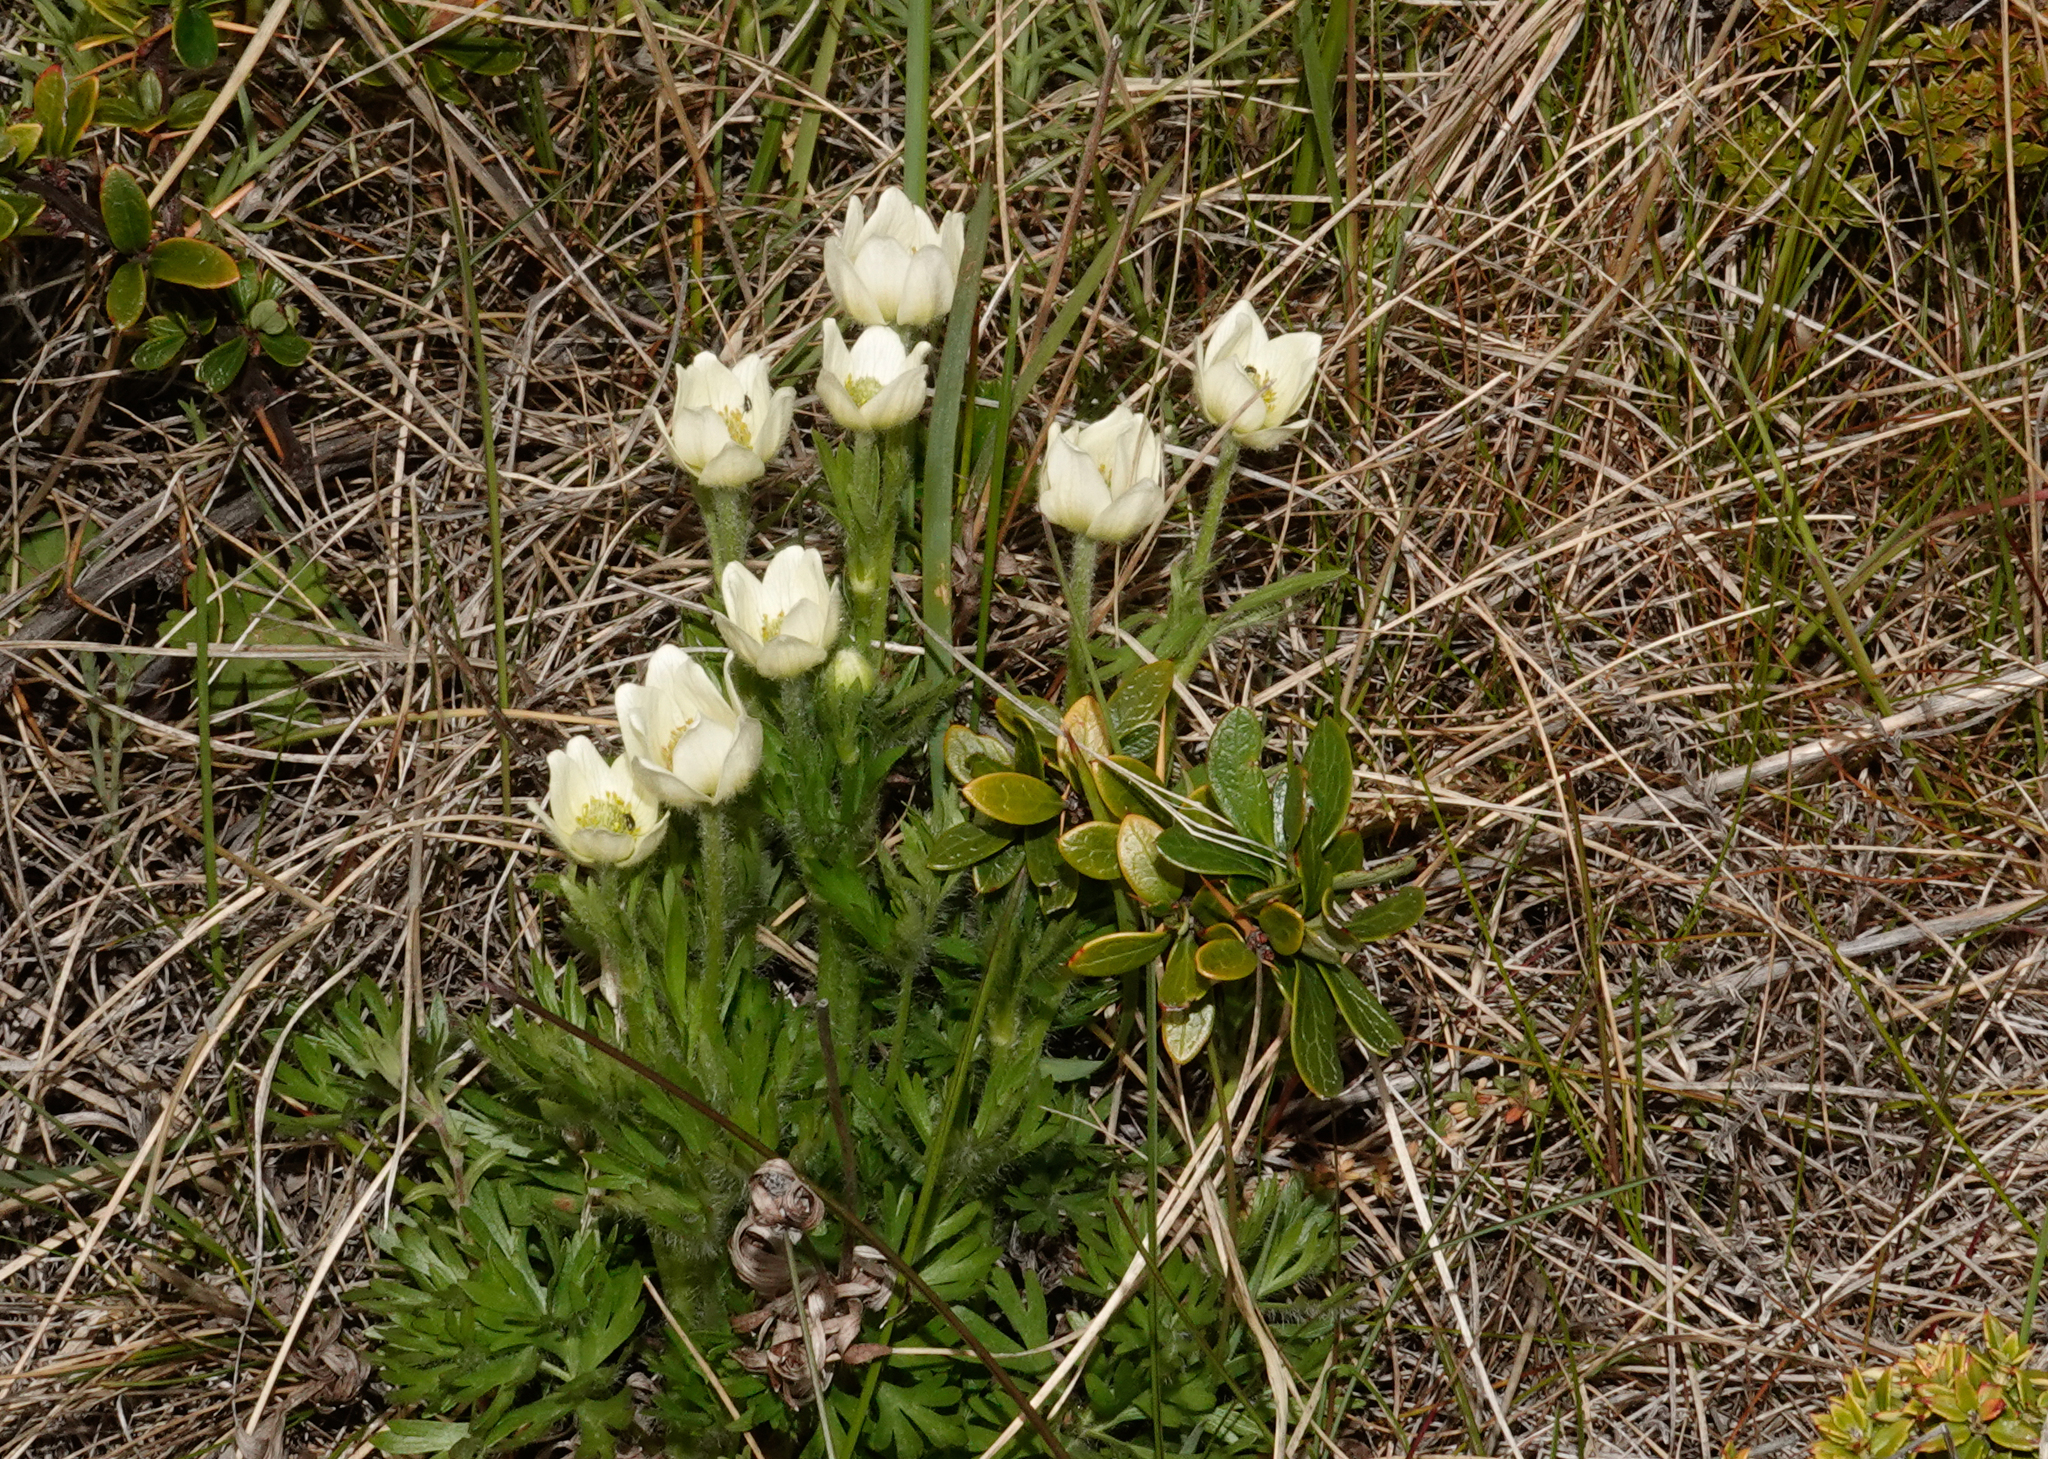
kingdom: Plantae
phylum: Tracheophyta
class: Magnoliopsida
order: Ranunculales
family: Ranunculaceae
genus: Anemone
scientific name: Anemone multifida
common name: Bird's-foot anemone
